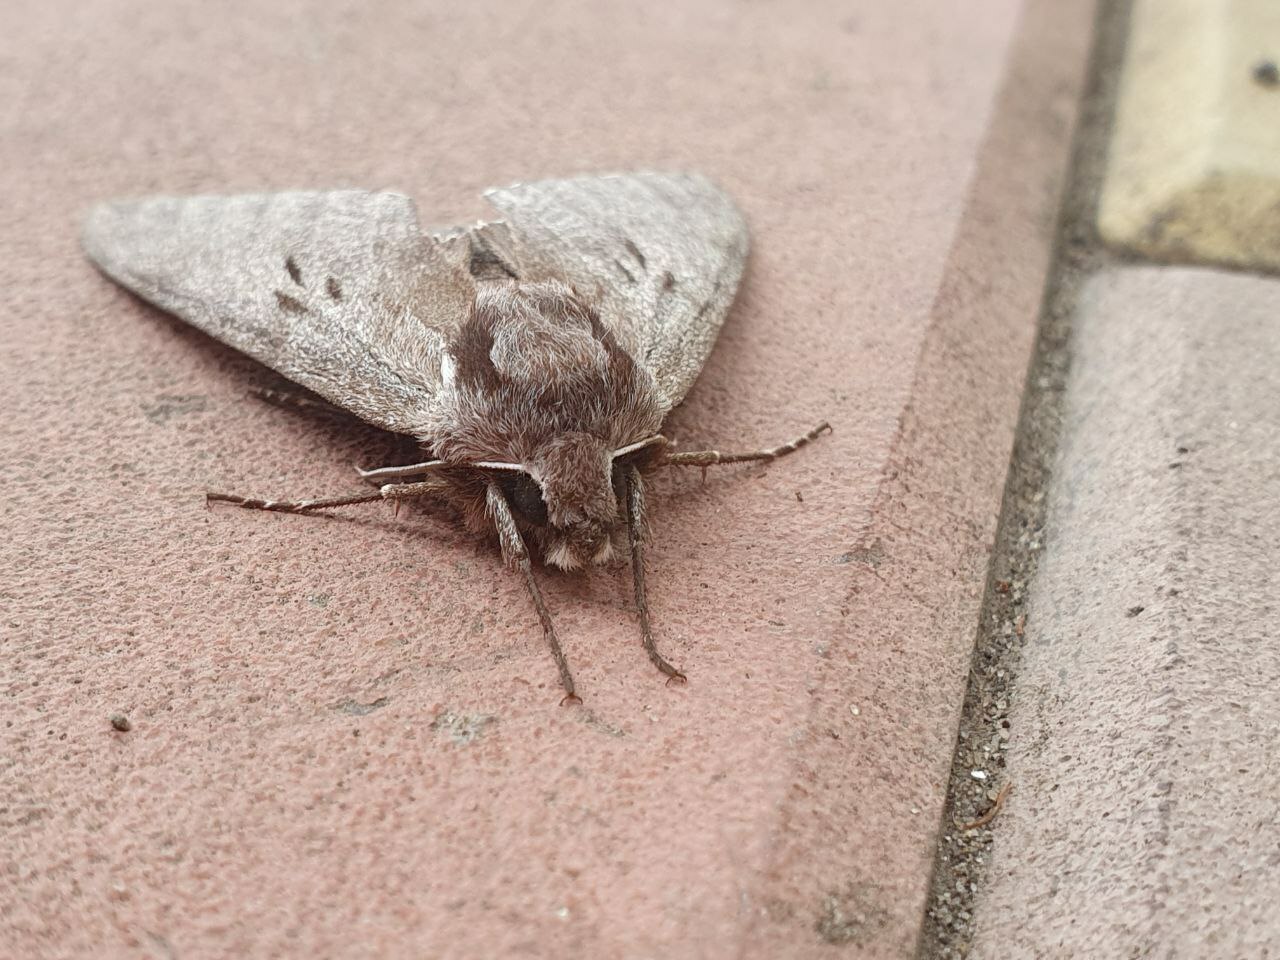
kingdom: Animalia
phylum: Arthropoda
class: Insecta
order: Lepidoptera
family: Sphingidae
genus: Sphinx
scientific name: Sphinx pinastri
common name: Pine hawk-moth
